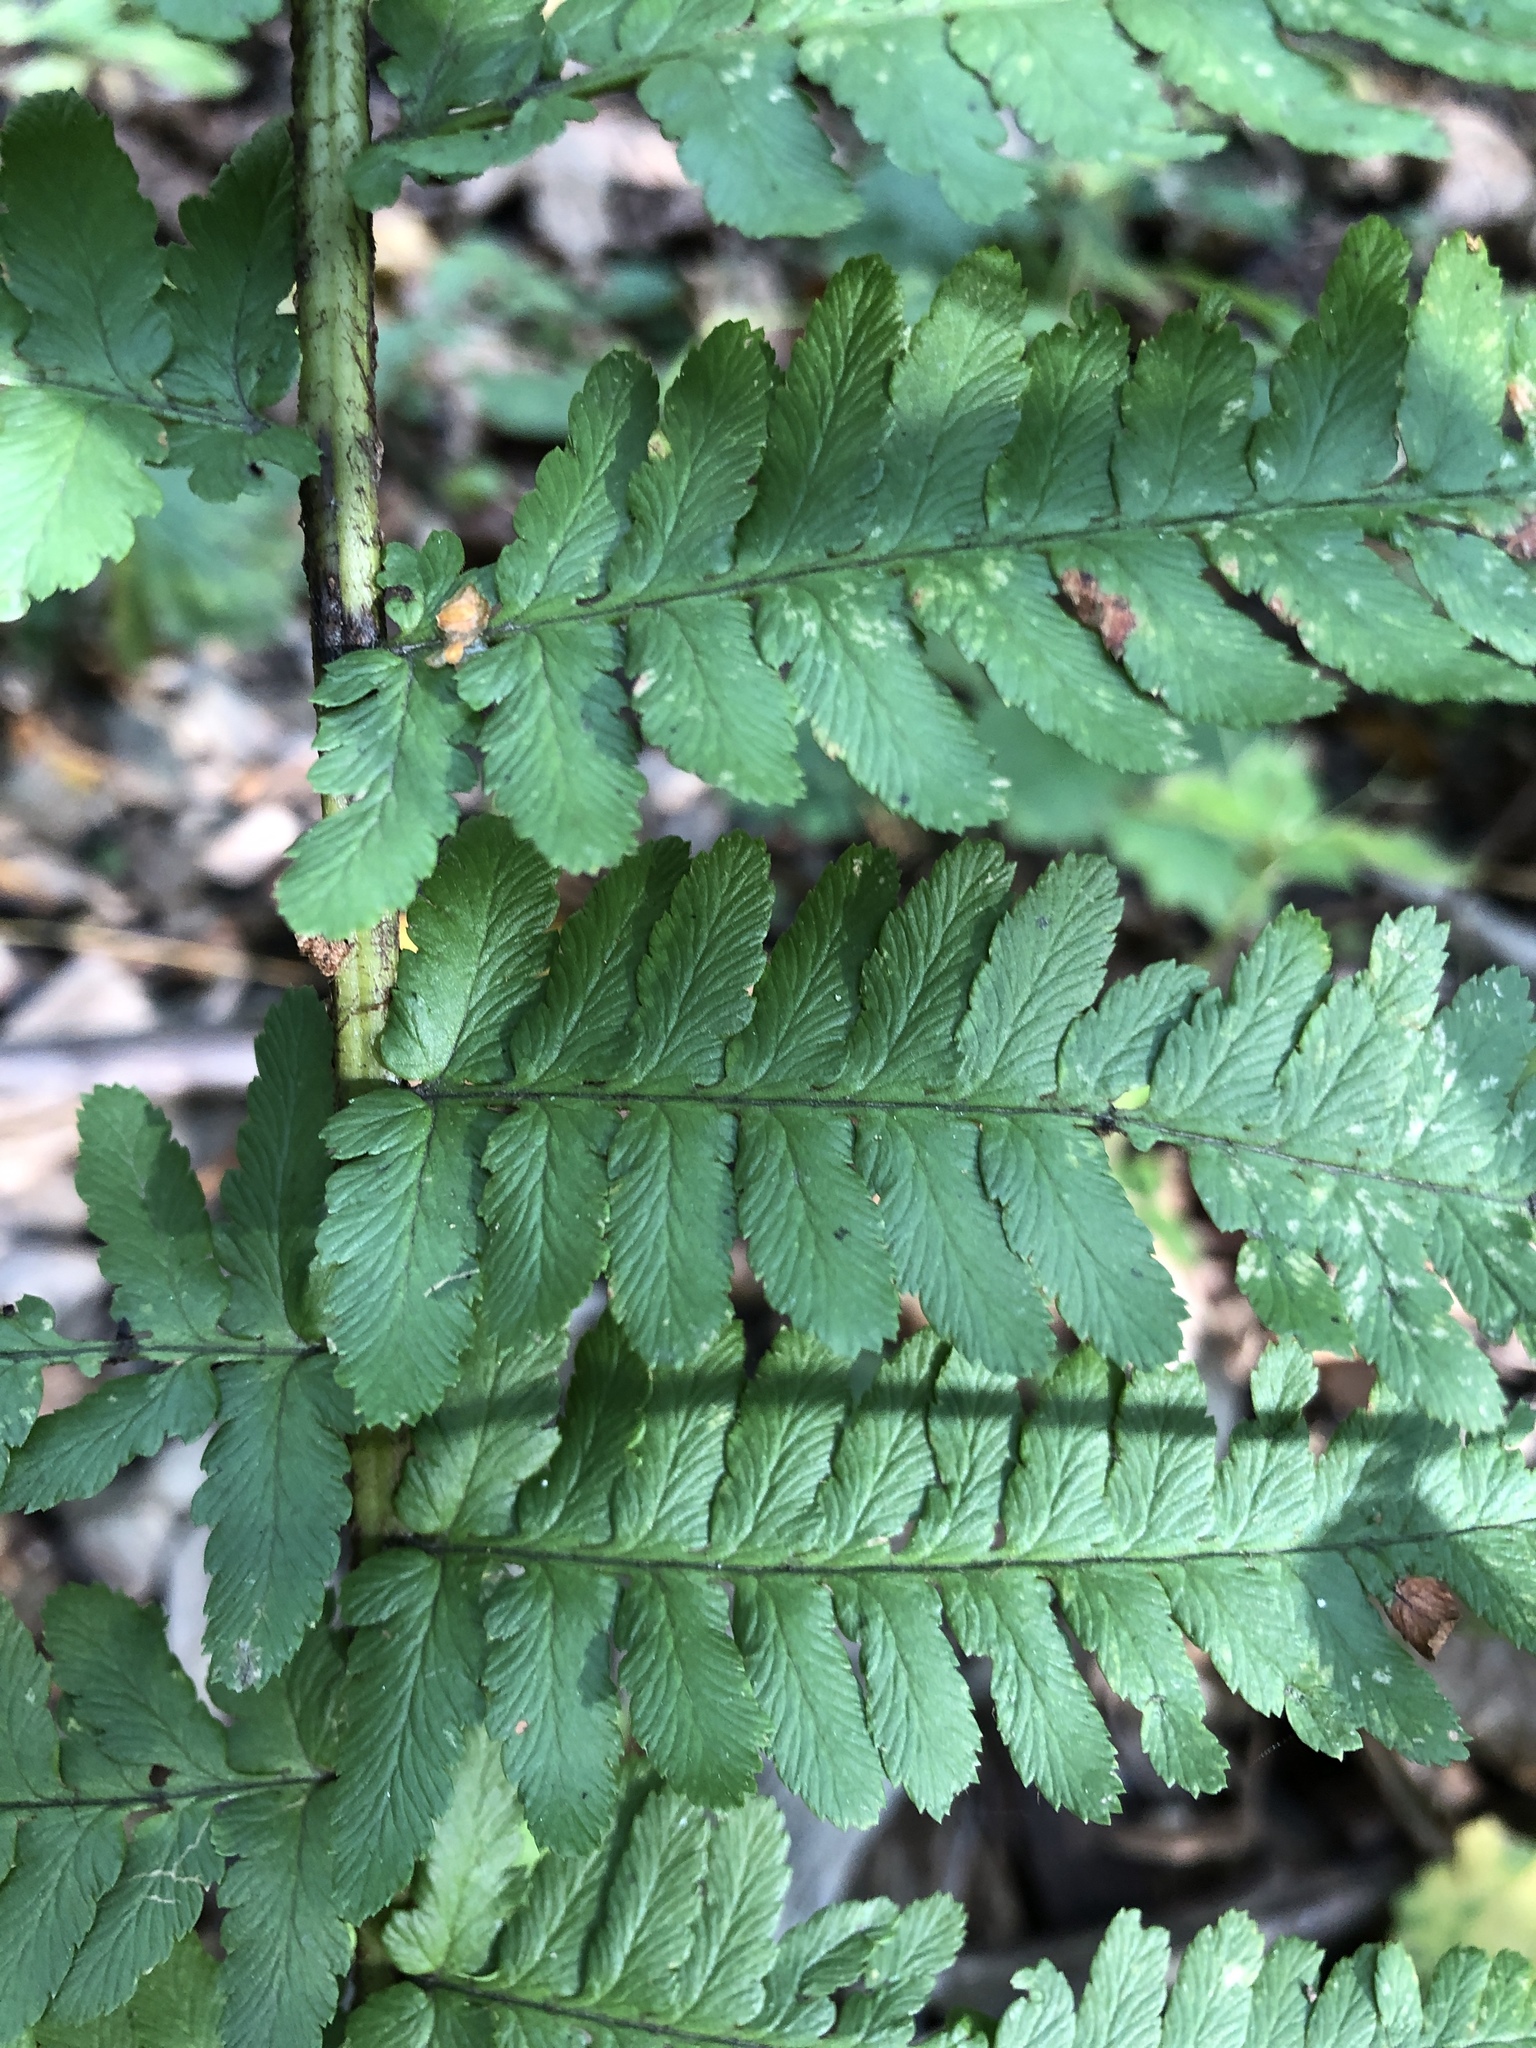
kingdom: Plantae
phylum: Tracheophyta
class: Polypodiopsida
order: Polypodiales
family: Dryopteridaceae
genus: Dryopteris
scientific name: Dryopteris filix-mas
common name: Male fern
